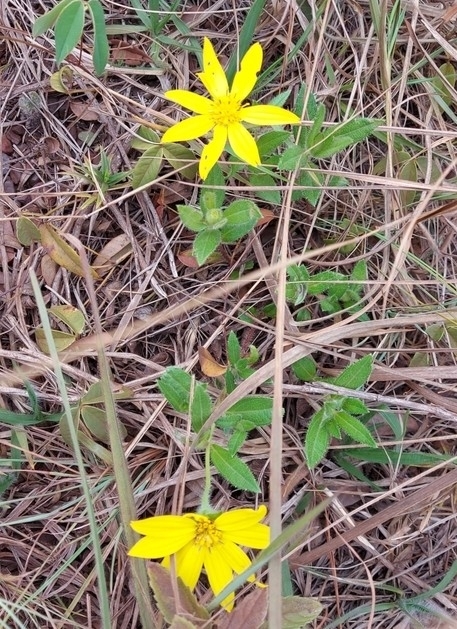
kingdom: Plantae
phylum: Tracheophyta
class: Magnoliopsida
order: Asterales
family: Asteraceae
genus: Wedelia
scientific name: Wedelia foliacea
